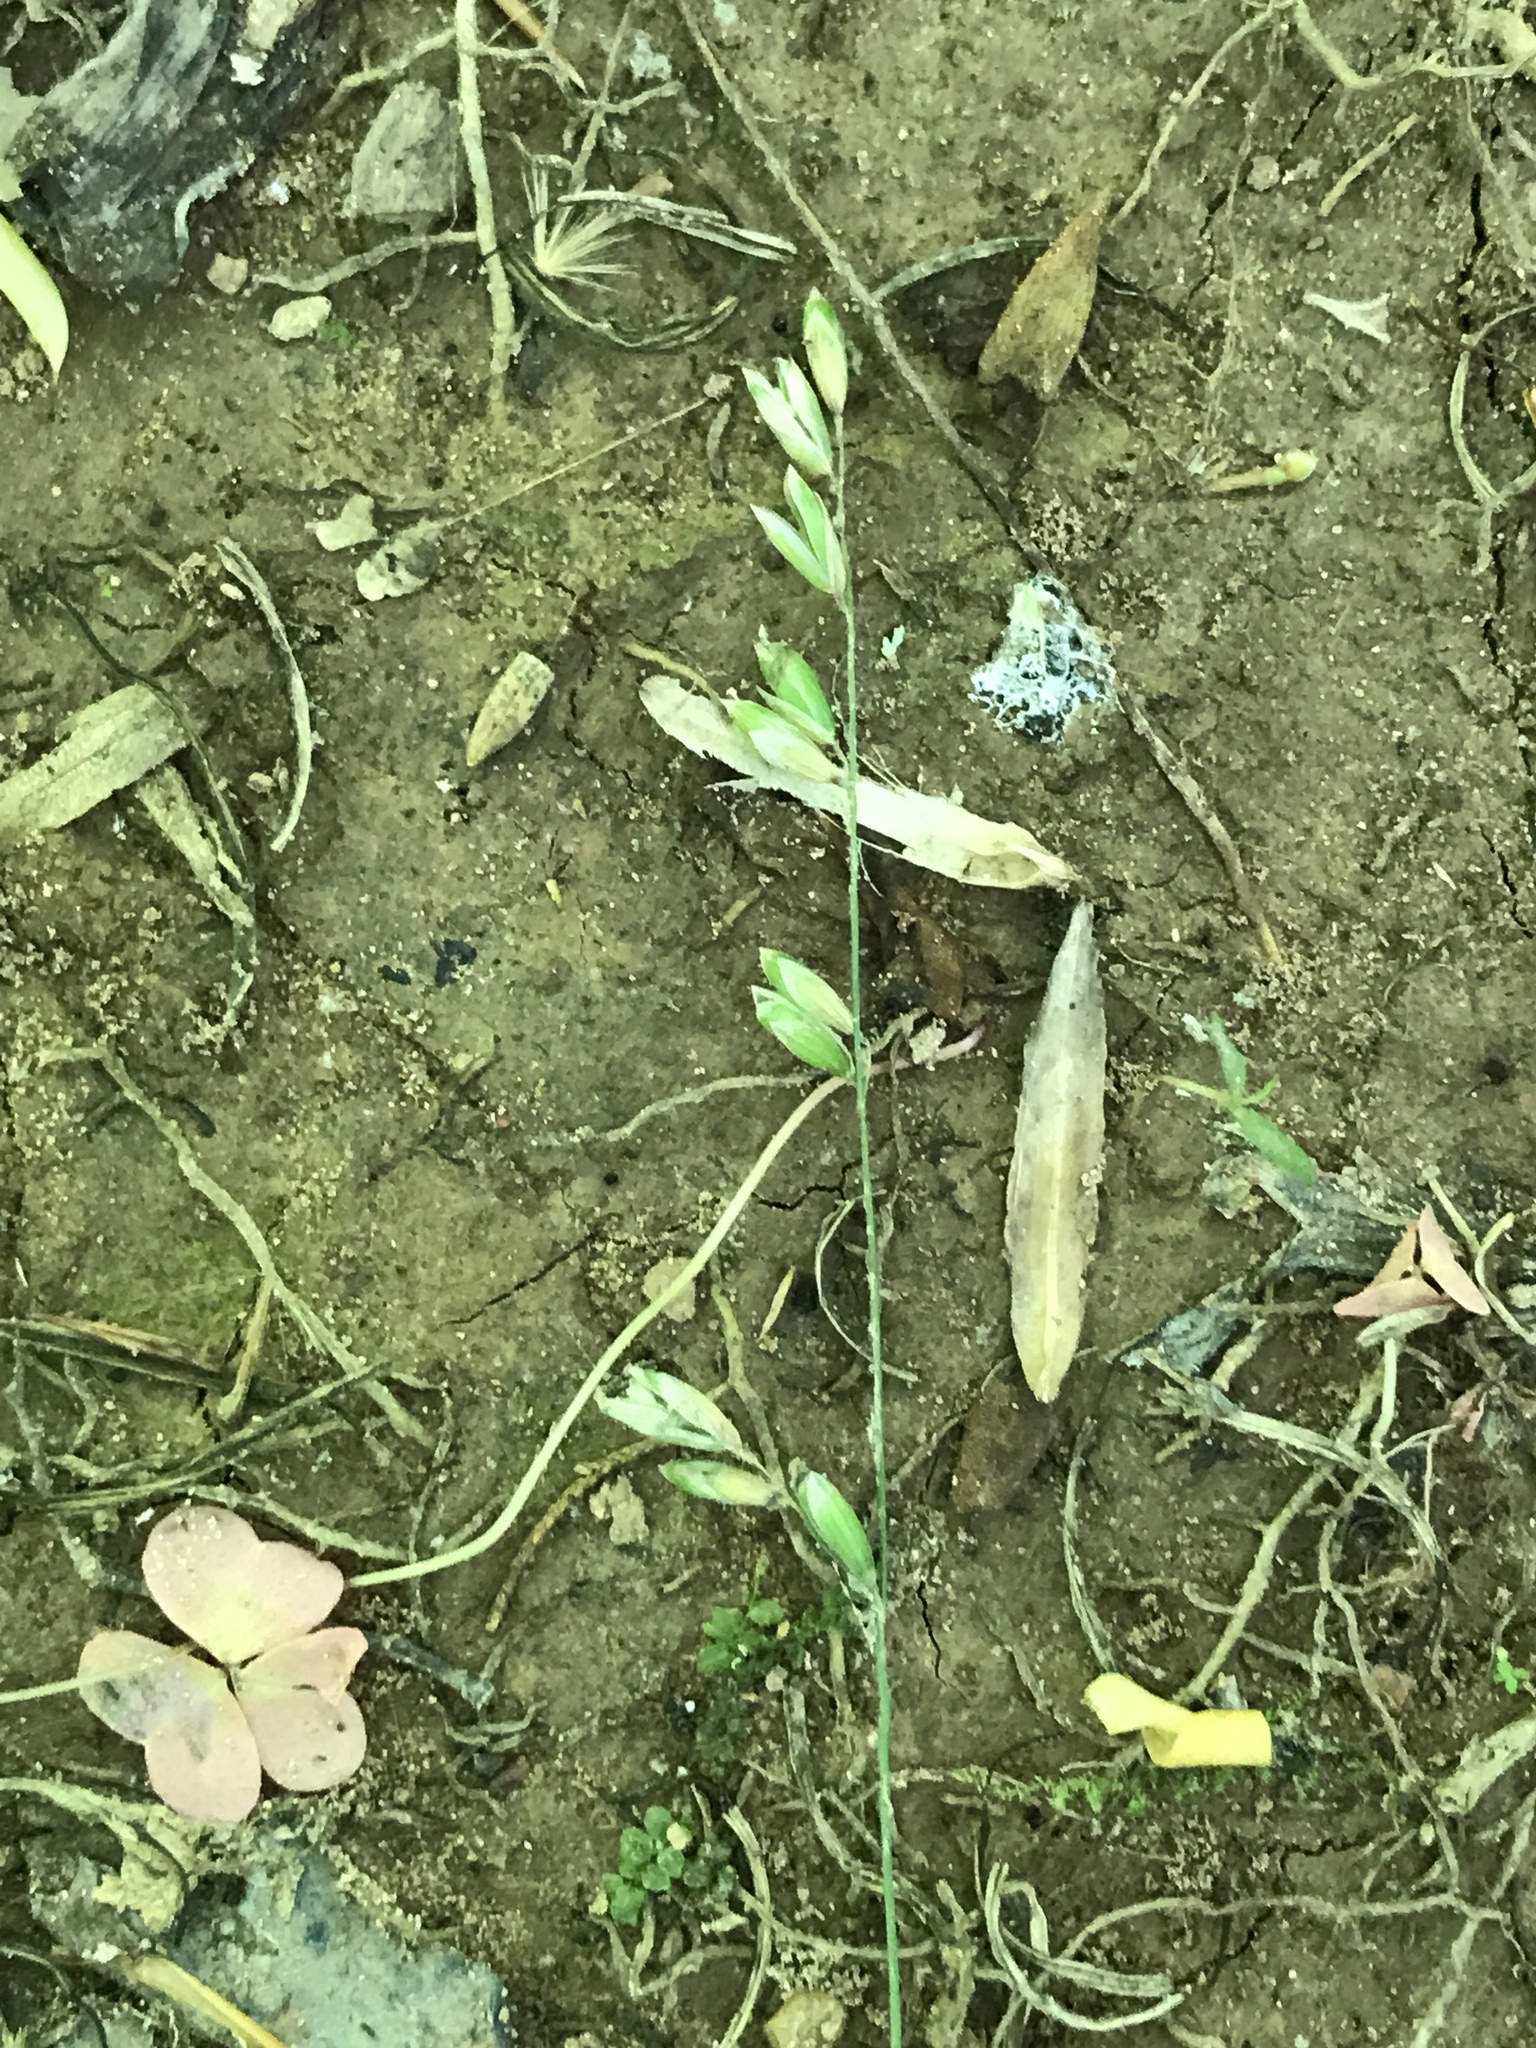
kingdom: Plantae
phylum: Tracheophyta
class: Liliopsida
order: Poales
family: Poaceae
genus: Melica
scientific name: Melica mutica
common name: Two-flower melic
